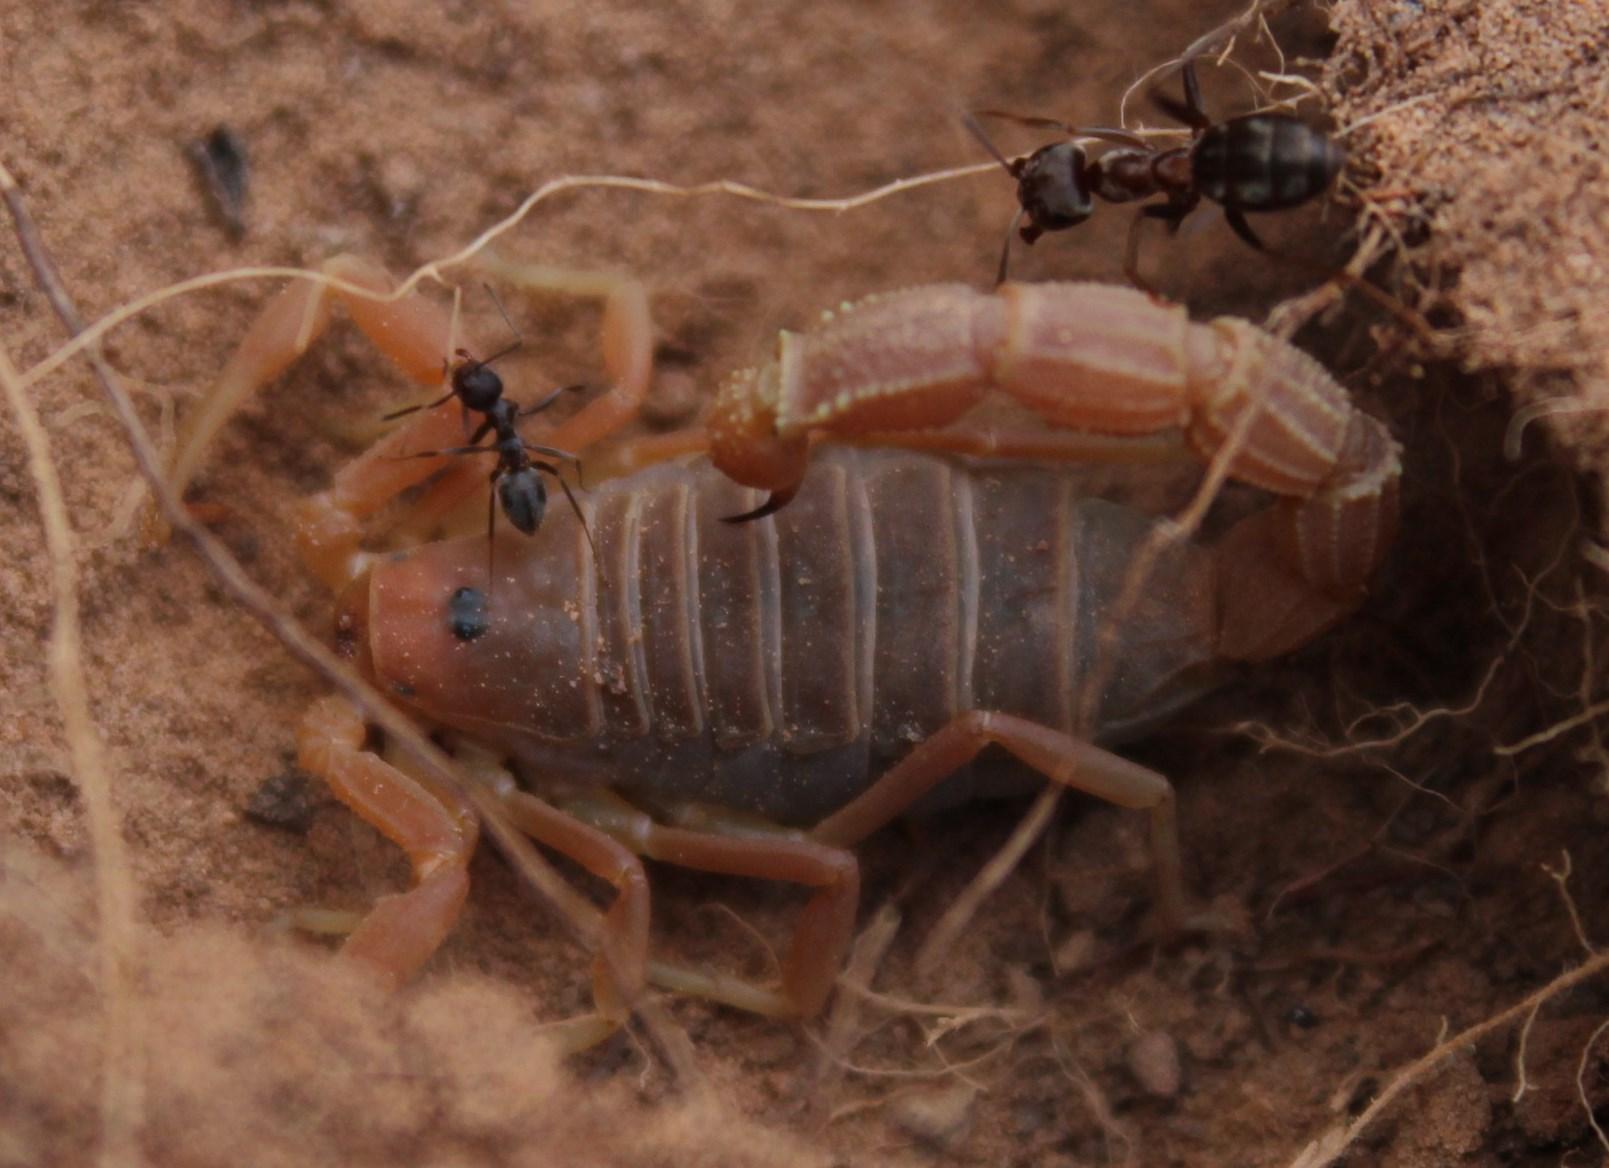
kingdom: Animalia
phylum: Arthropoda
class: Arachnida
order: Scorpiones
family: Buthidae
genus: Parabuthus
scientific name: Parabuthus planicauda
